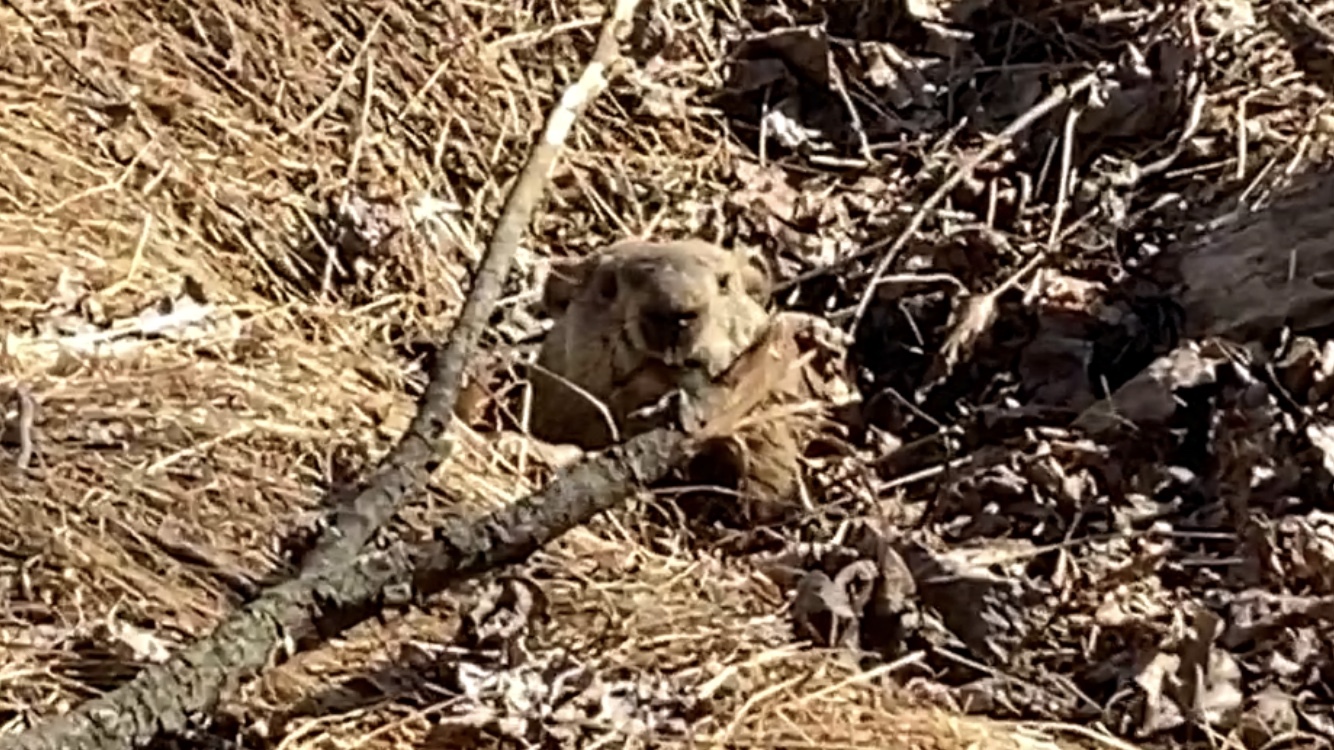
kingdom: Animalia
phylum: Chordata
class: Mammalia
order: Rodentia
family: Sciuridae
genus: Marmota
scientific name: Marmota monax
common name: Groundhog
